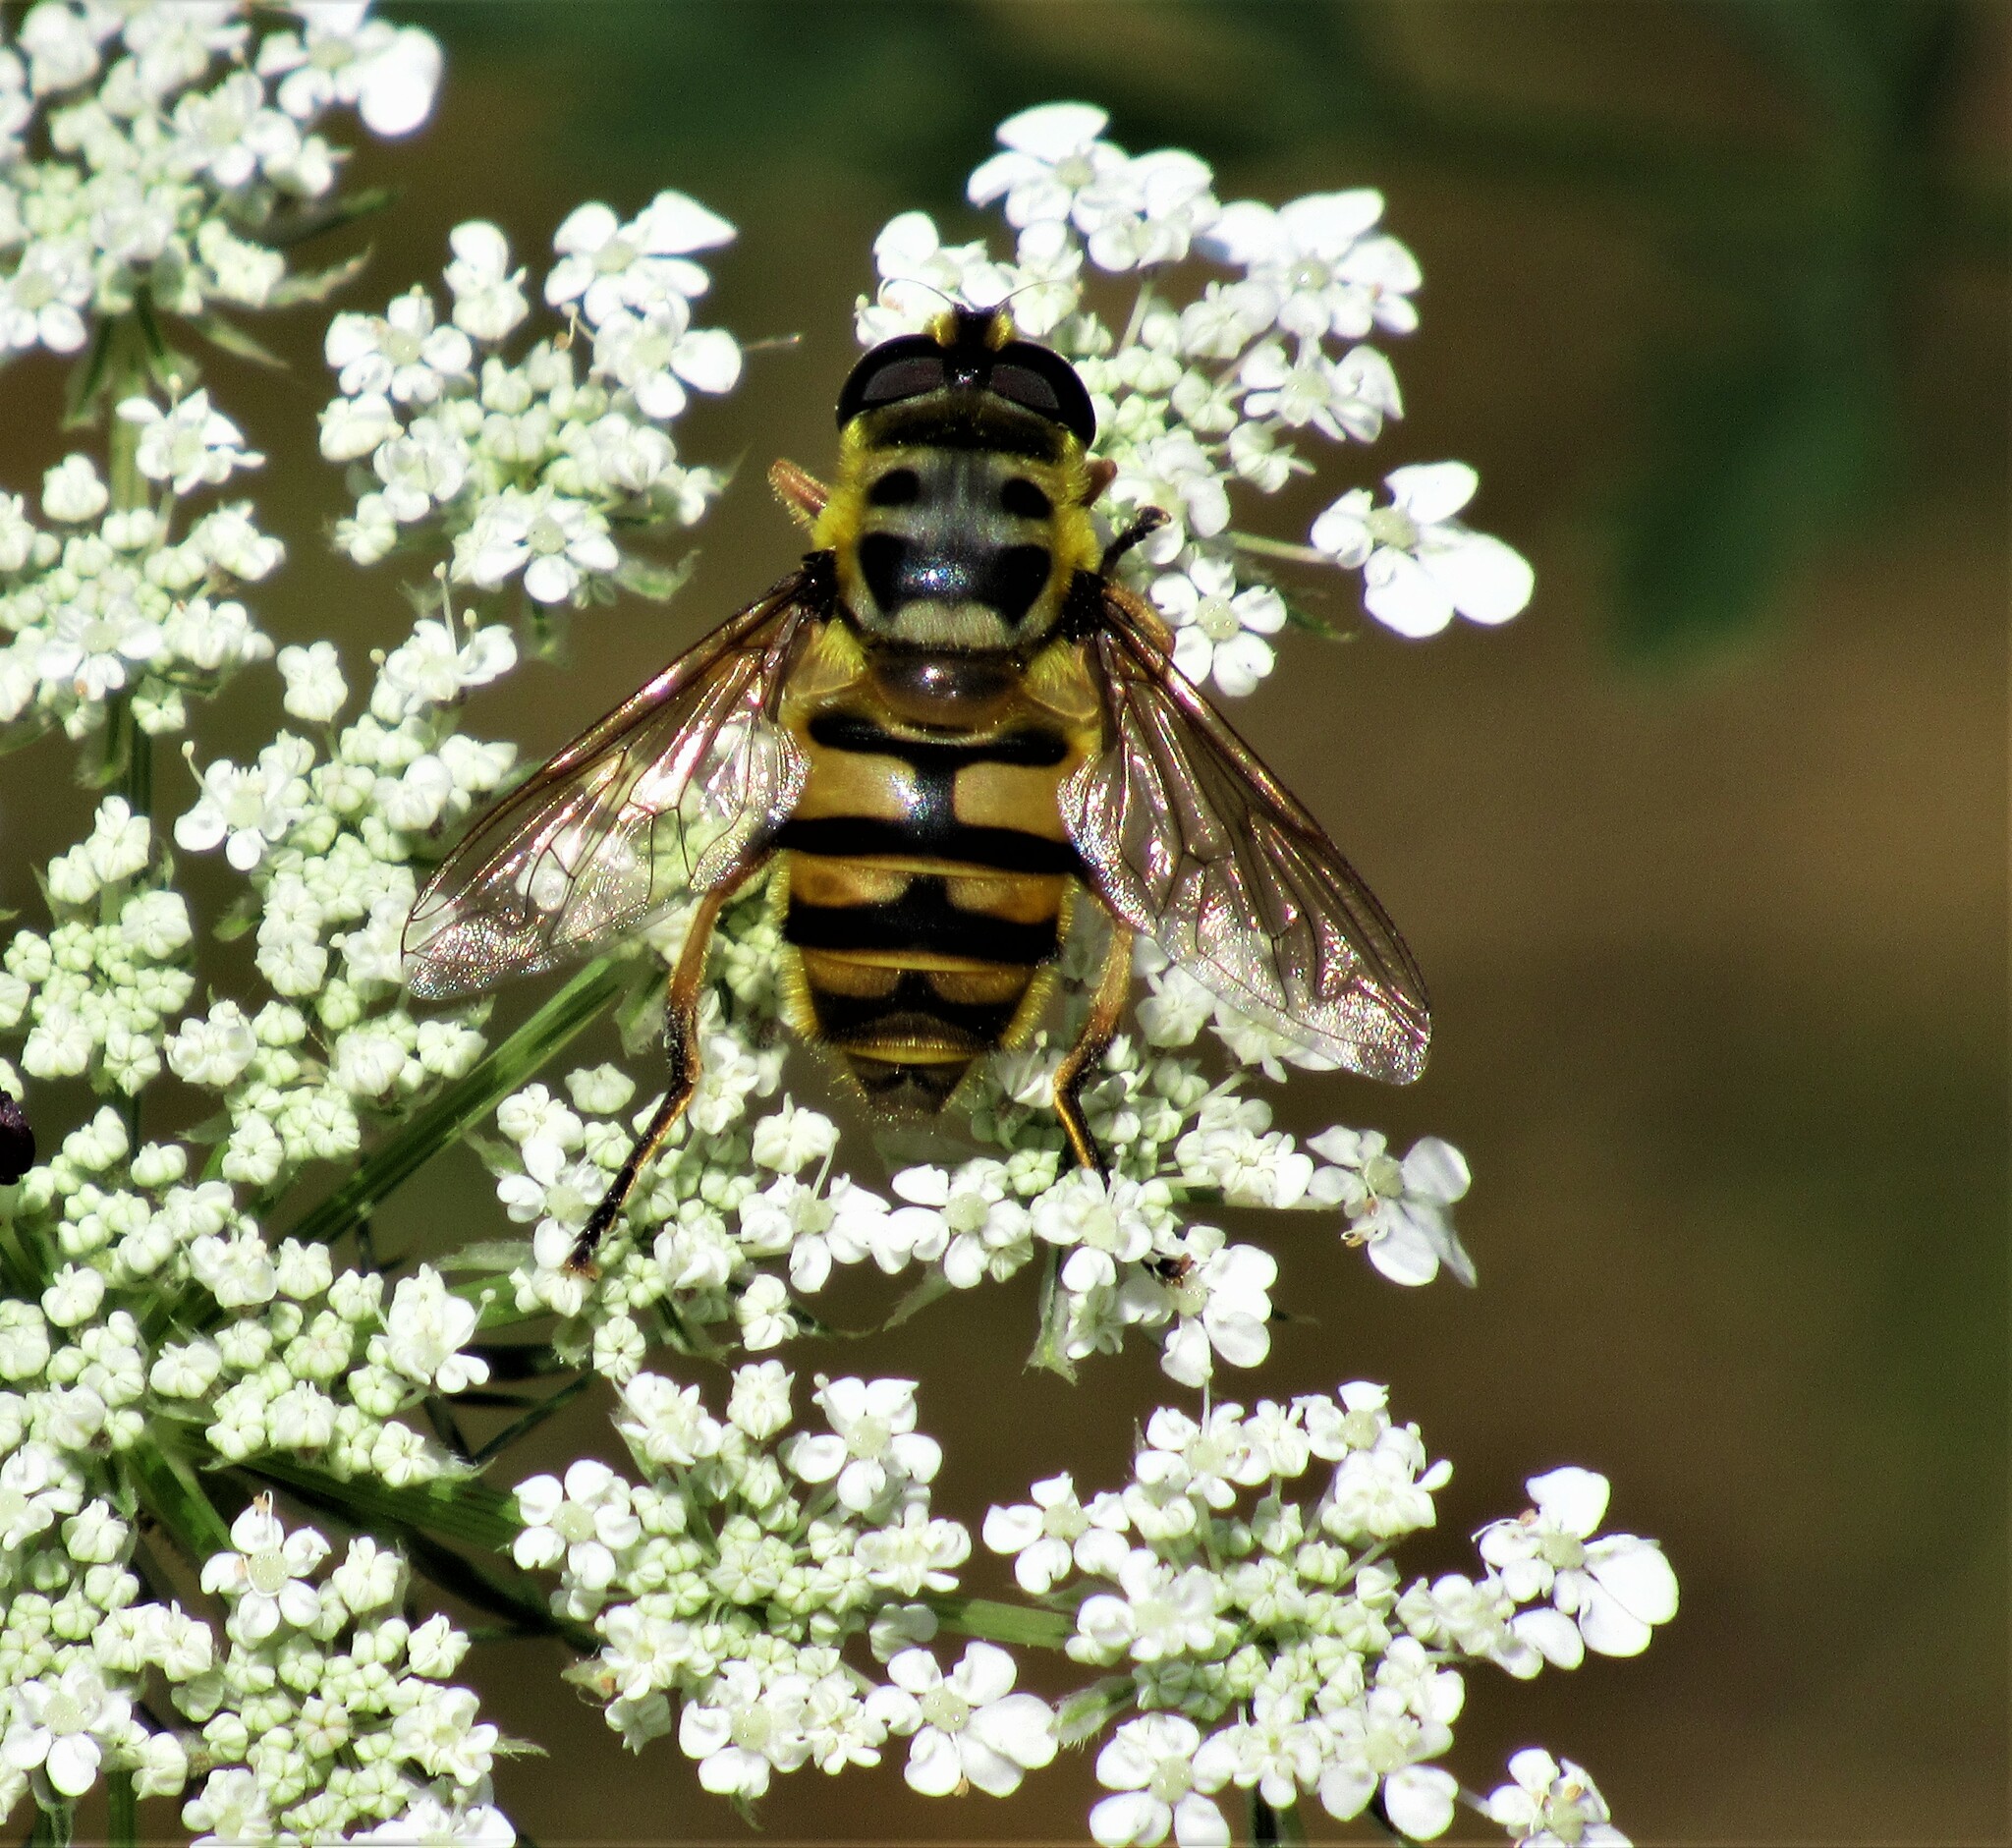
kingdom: Animalia
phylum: Arthropoda
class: Insecta
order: Diptera
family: Syrphidae
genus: Myathropa
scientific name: Myathropa florea
